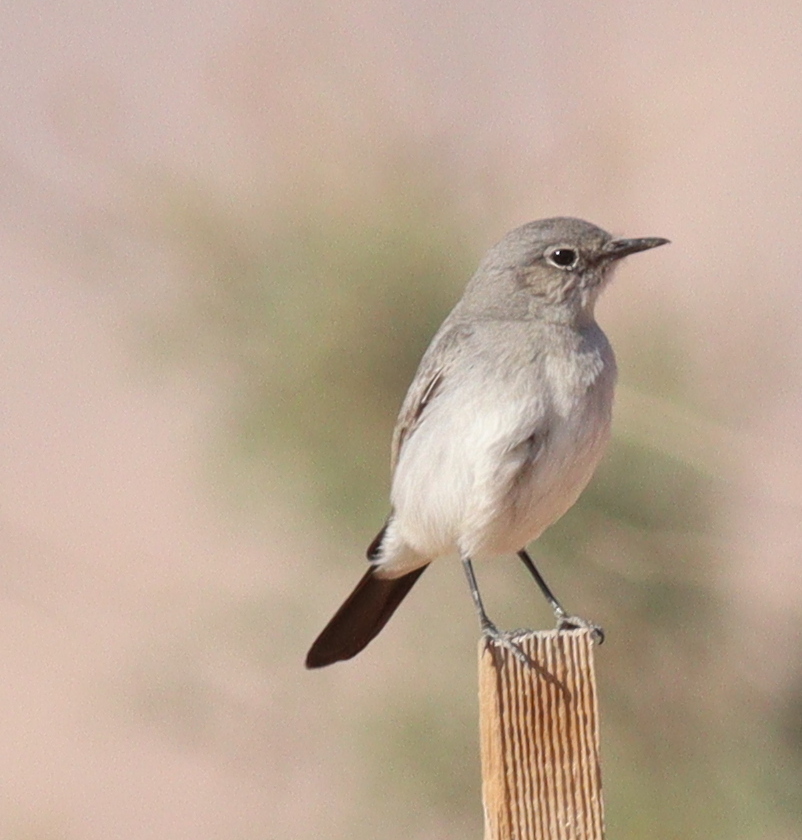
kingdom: Animalia
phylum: Chordata
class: Aves
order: Passeriformes
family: Muscicapidae
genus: Oenanthe
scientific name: Oenanthe melanura
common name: Blackstart
